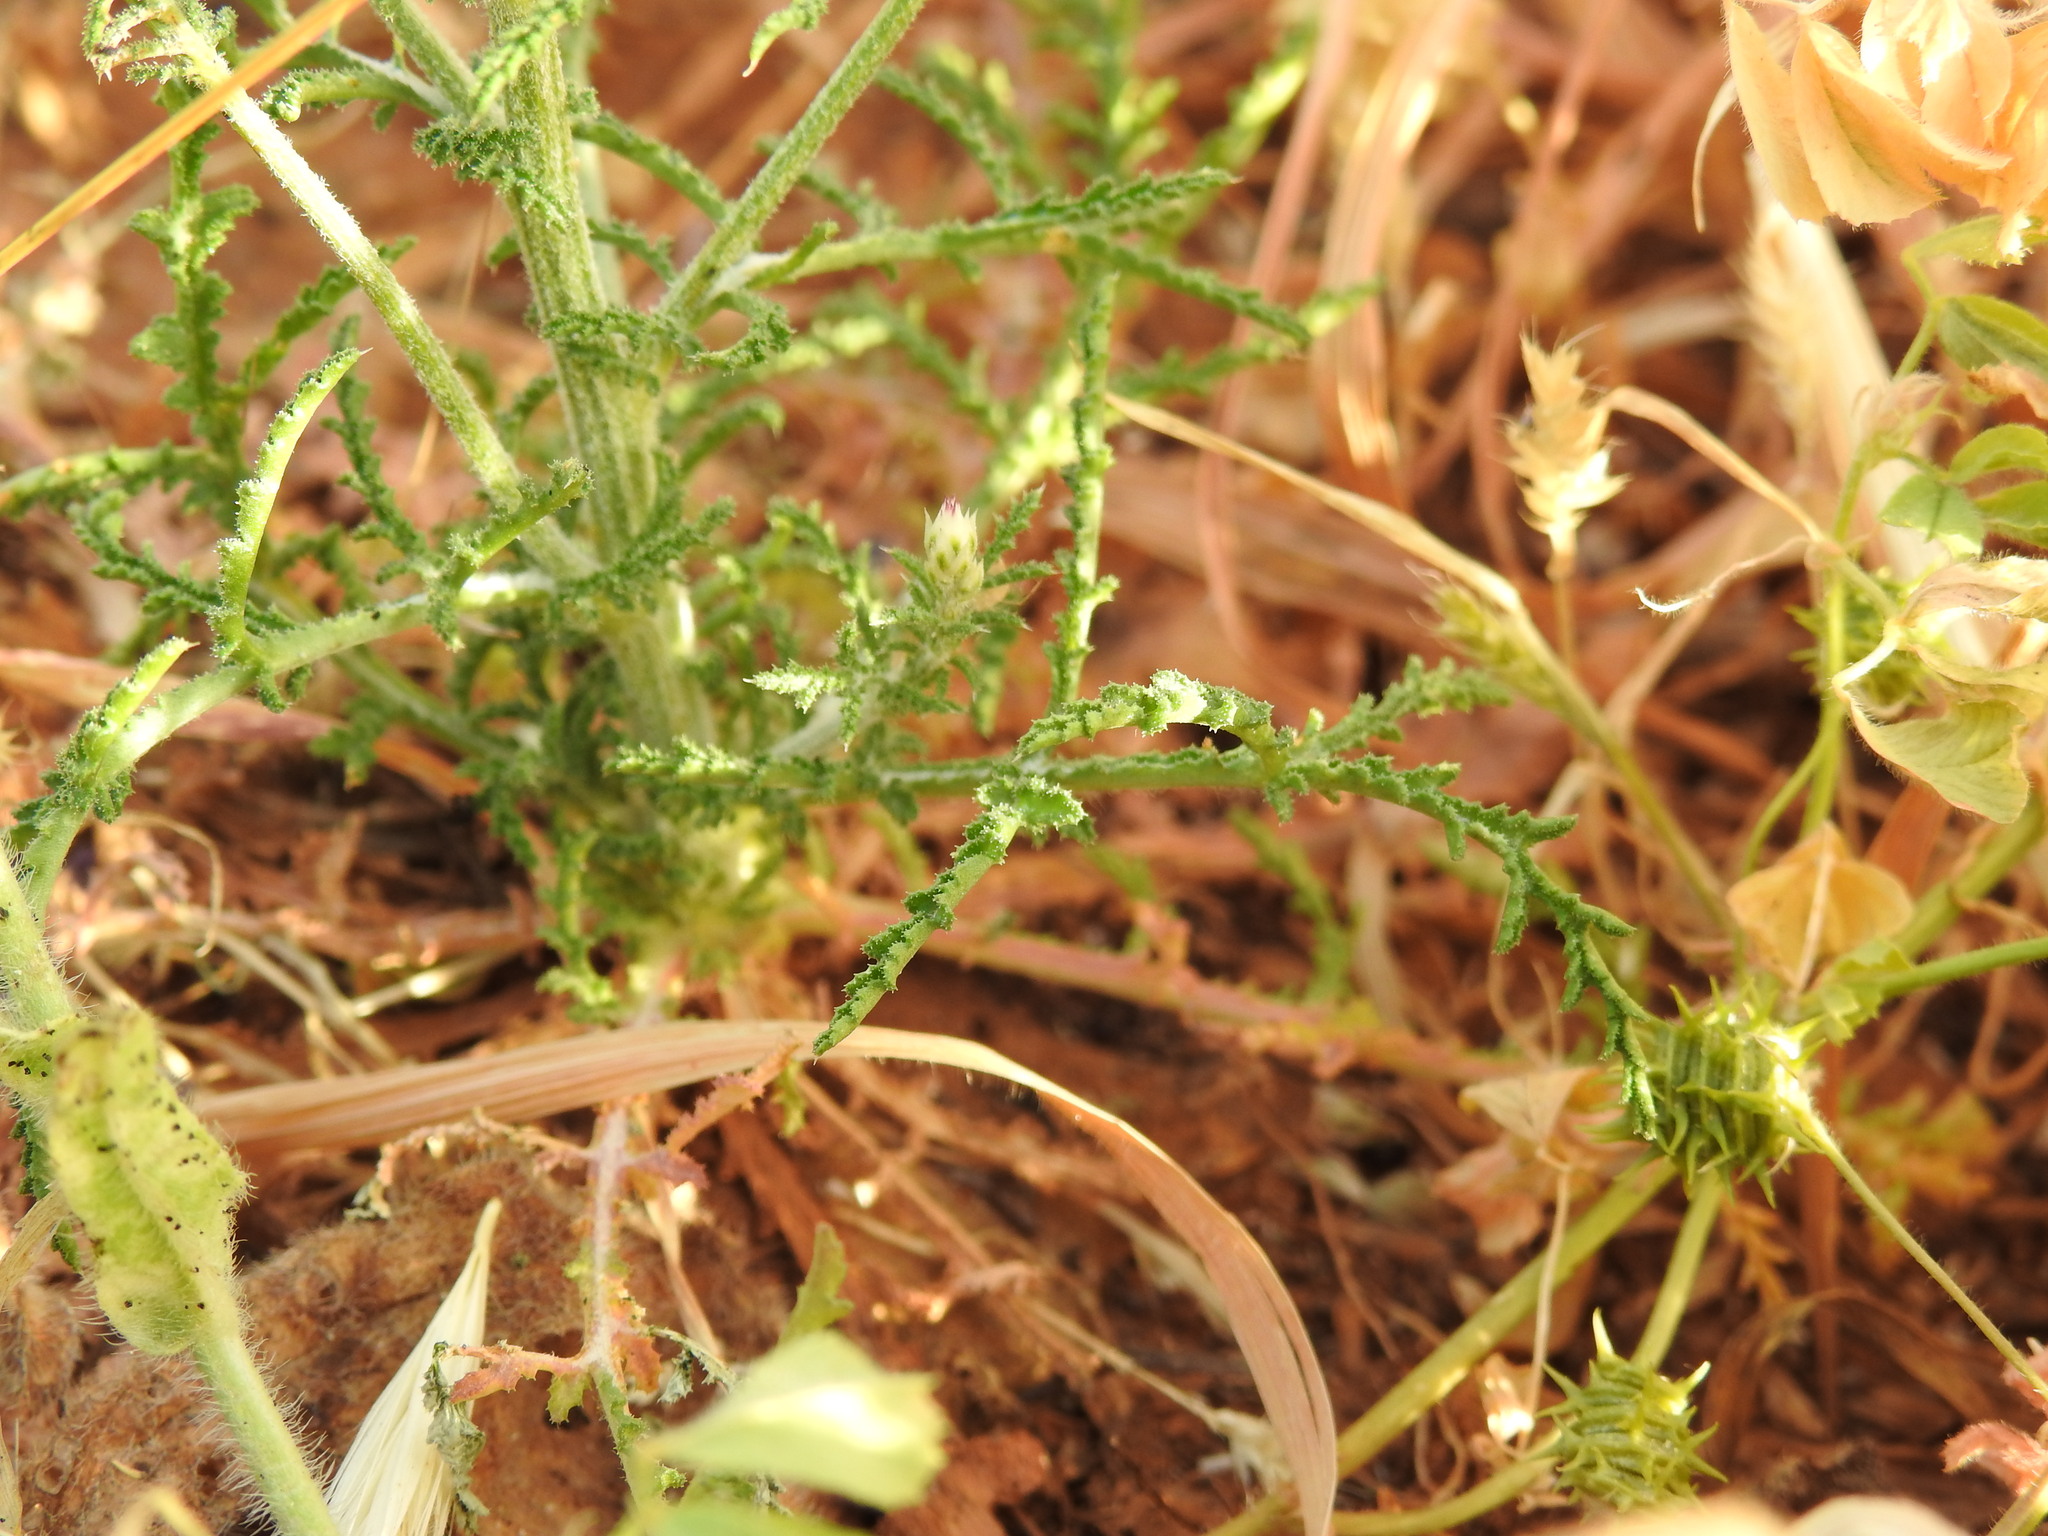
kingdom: Plantae
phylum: Tracheophyta
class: Magnoliopsida
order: Asterales
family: Asteraceae
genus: Crupina
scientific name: Crupina crupinastrum
